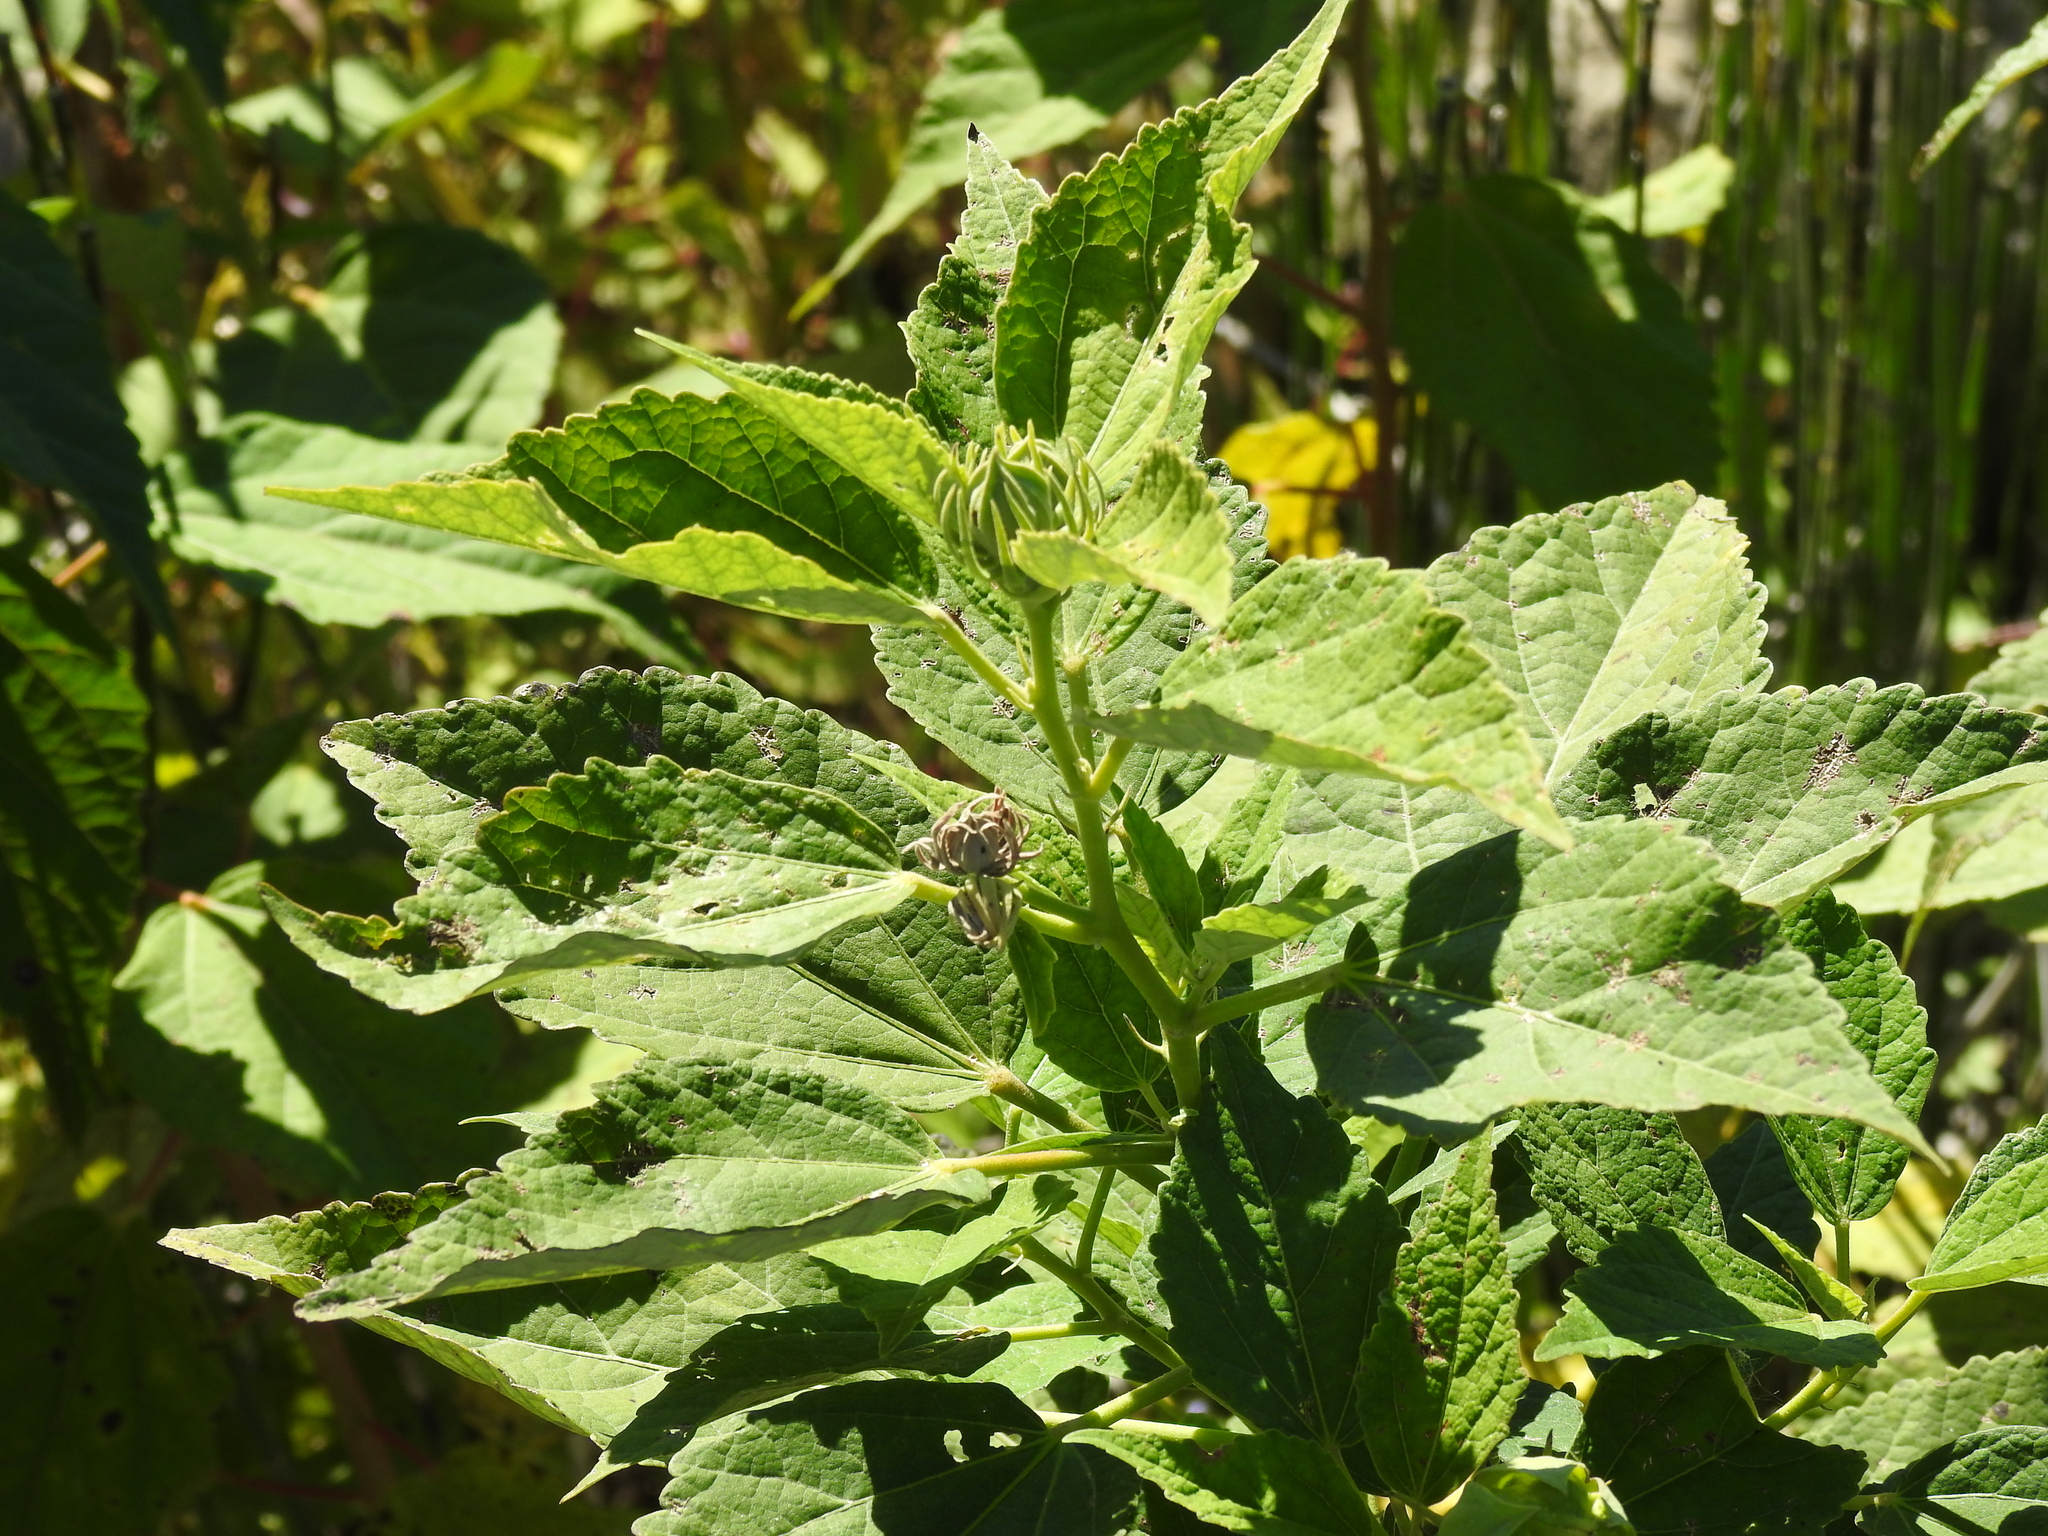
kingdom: Plantae
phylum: Tracheophyta
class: Magnoliopsida
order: Malvales
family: Malvaceae
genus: Hibiscus
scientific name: Hibiscus moscheutos
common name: Common rose-mallow
